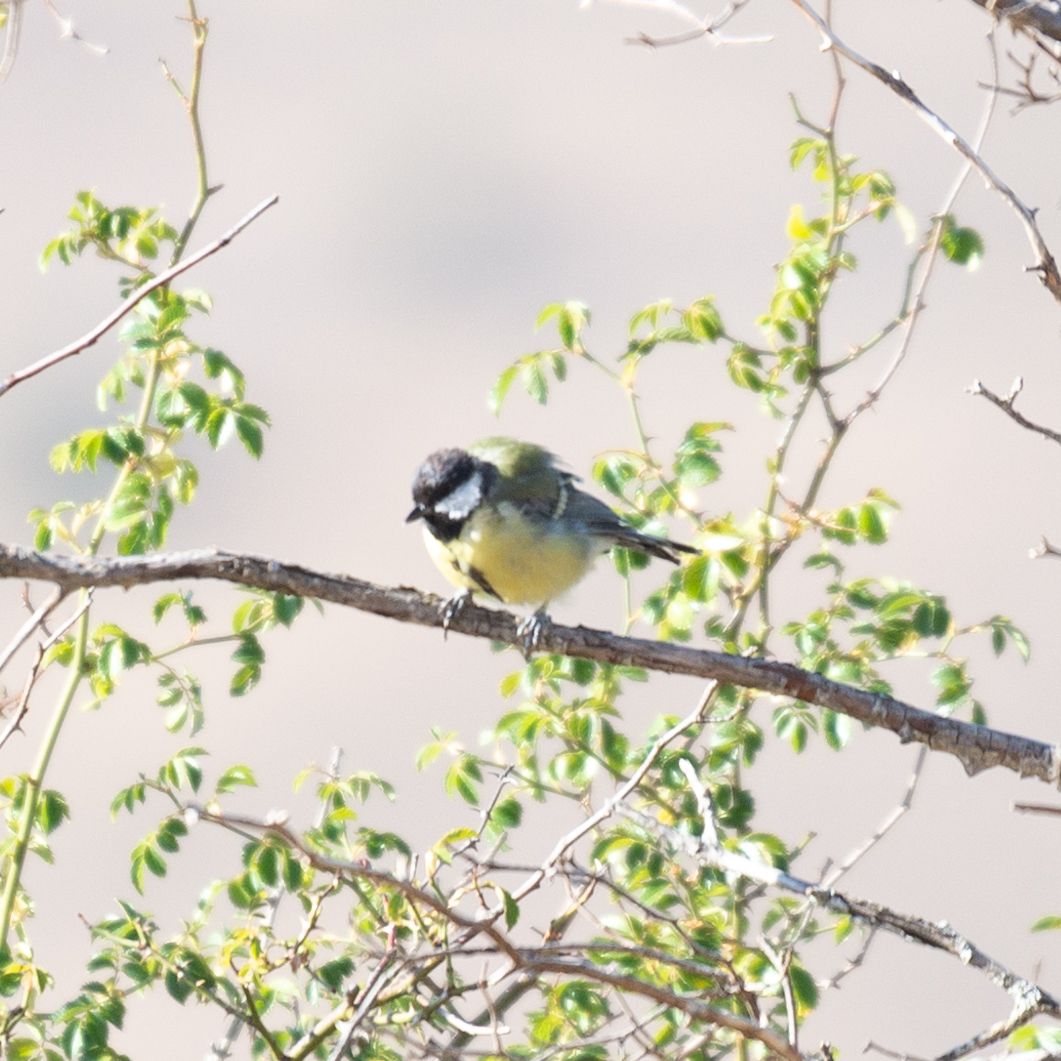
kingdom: Animalia
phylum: Chordata
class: Aves
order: Passeriformes
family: Paridae
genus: Parus
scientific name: Parus major
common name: Great tit
